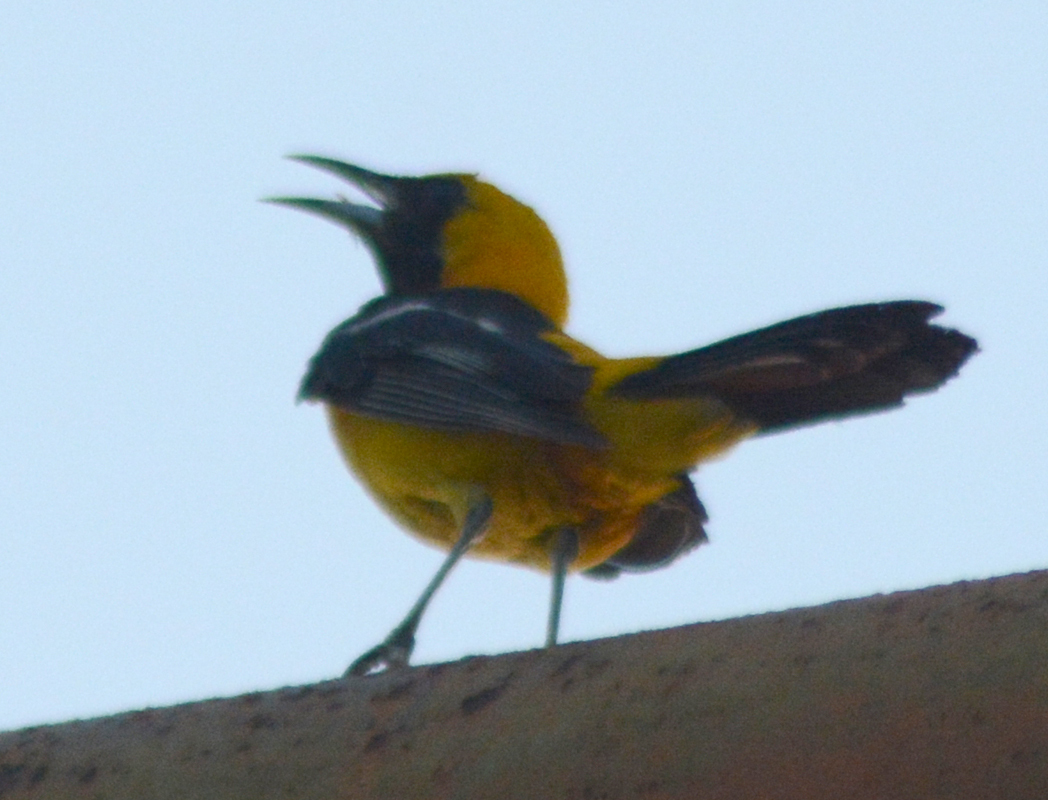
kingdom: Animalia
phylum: Chordata
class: Aves
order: Passeriformes
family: Icteridae
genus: Icterus
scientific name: Icterus cucullatus
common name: Hooded oriole
